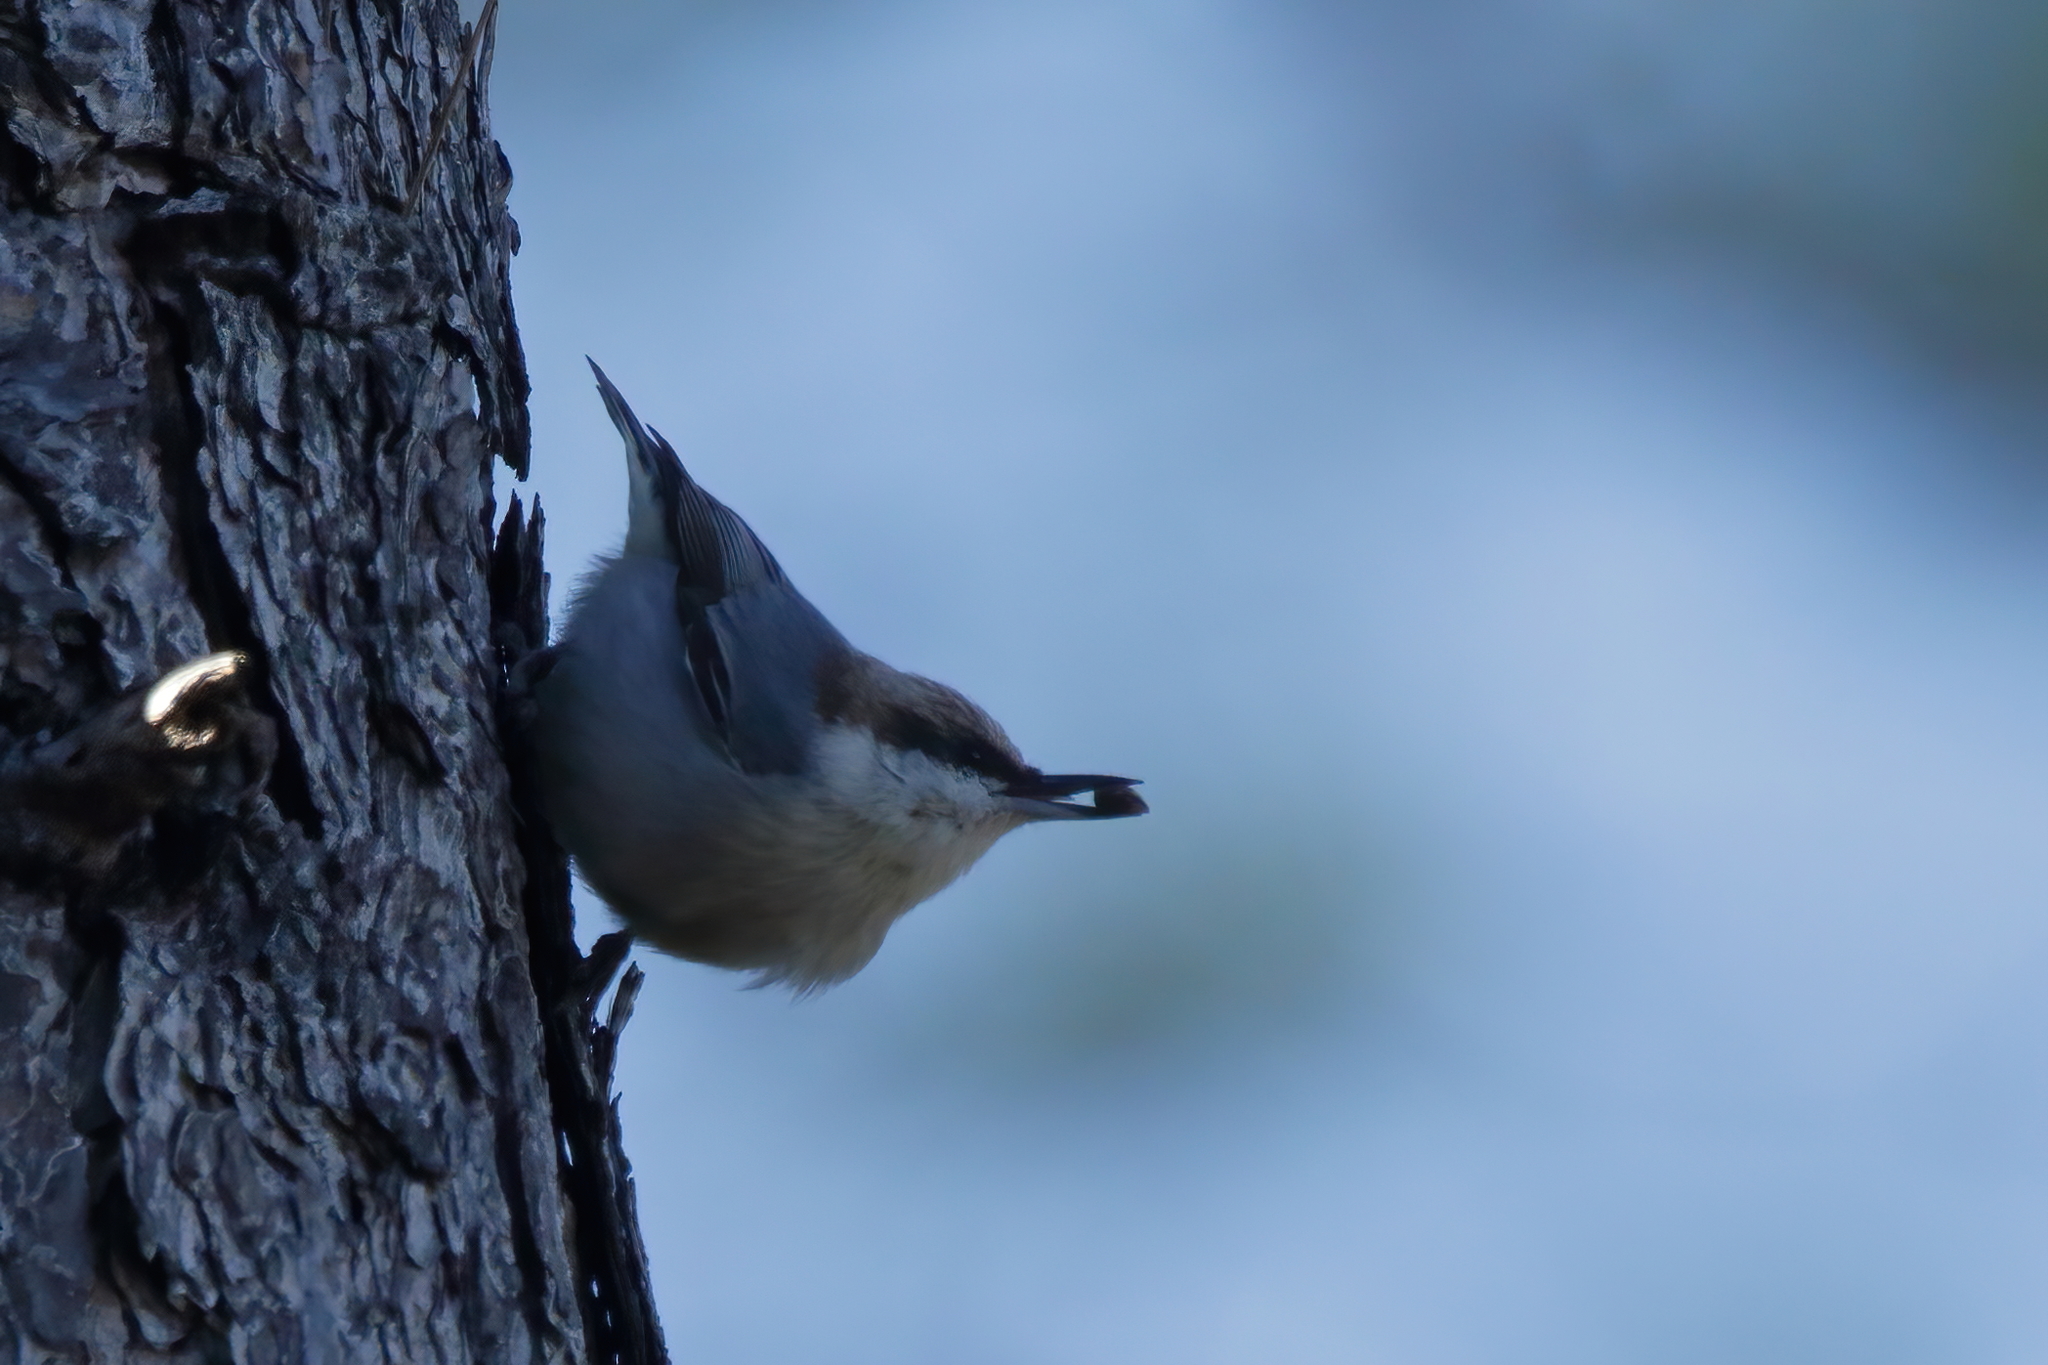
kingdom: Animalia
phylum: Chordata
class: Aves
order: Passeriformes
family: Sittidae
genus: Sitta
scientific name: Sitta pusilla
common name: Brown-headed nuthatch
